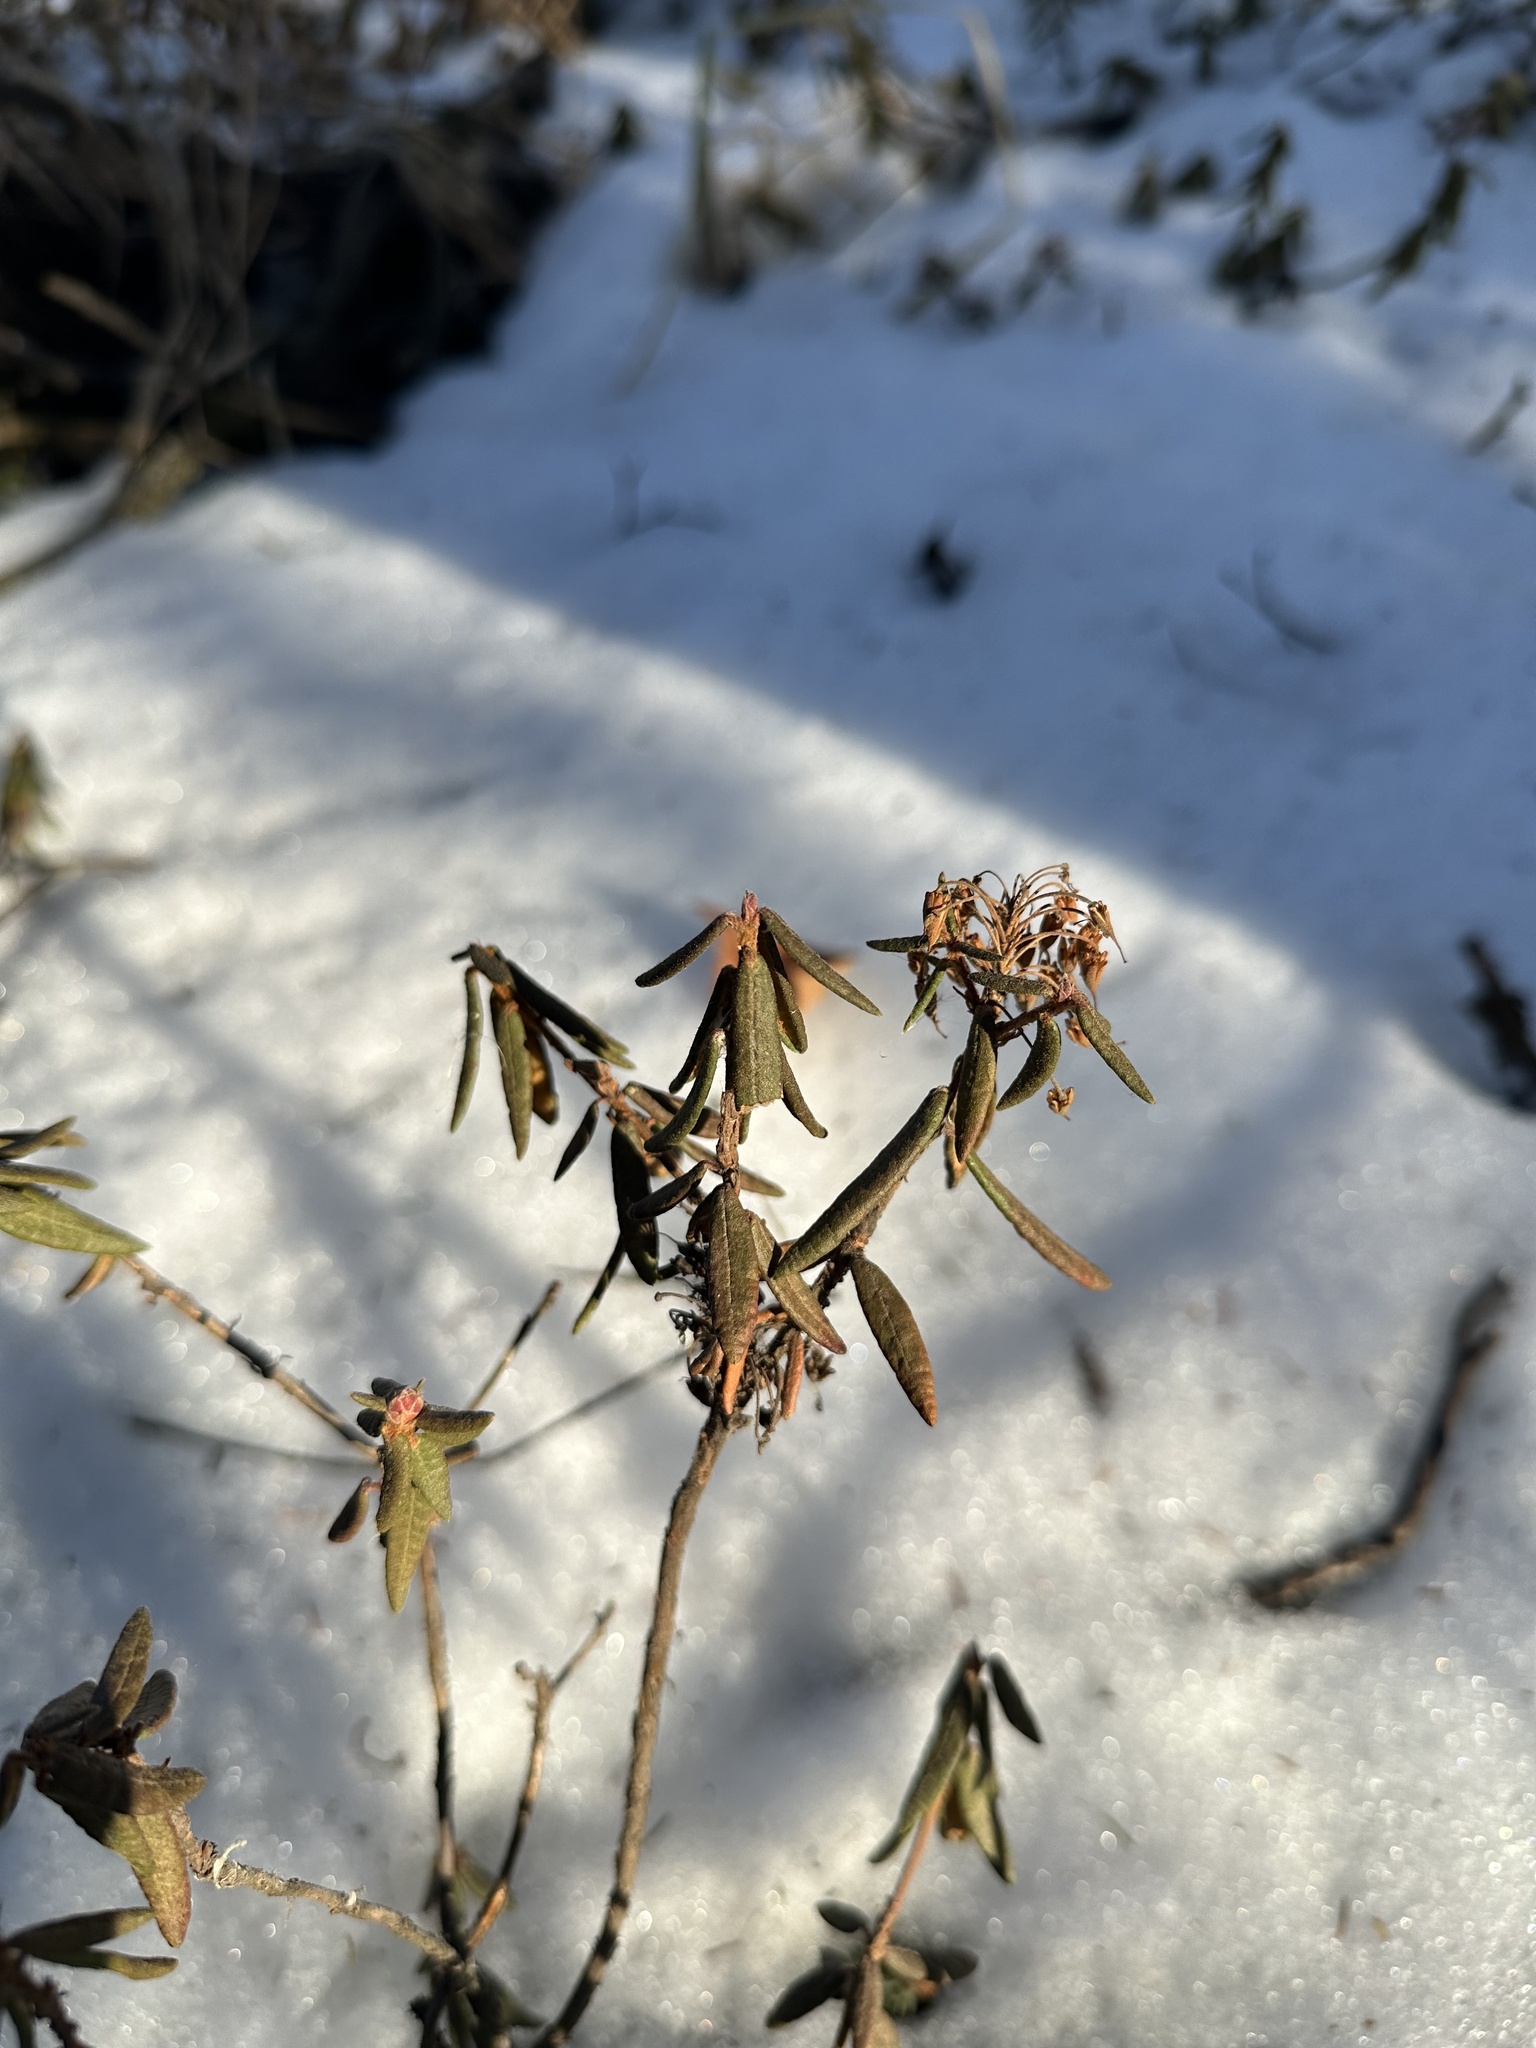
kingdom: Plantae
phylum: Tracheophyta
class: Magnoliopsida
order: Ericales
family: Ericaceae
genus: Rhododendron
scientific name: Rhododendron groenlandicum
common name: Bog labrador tea
